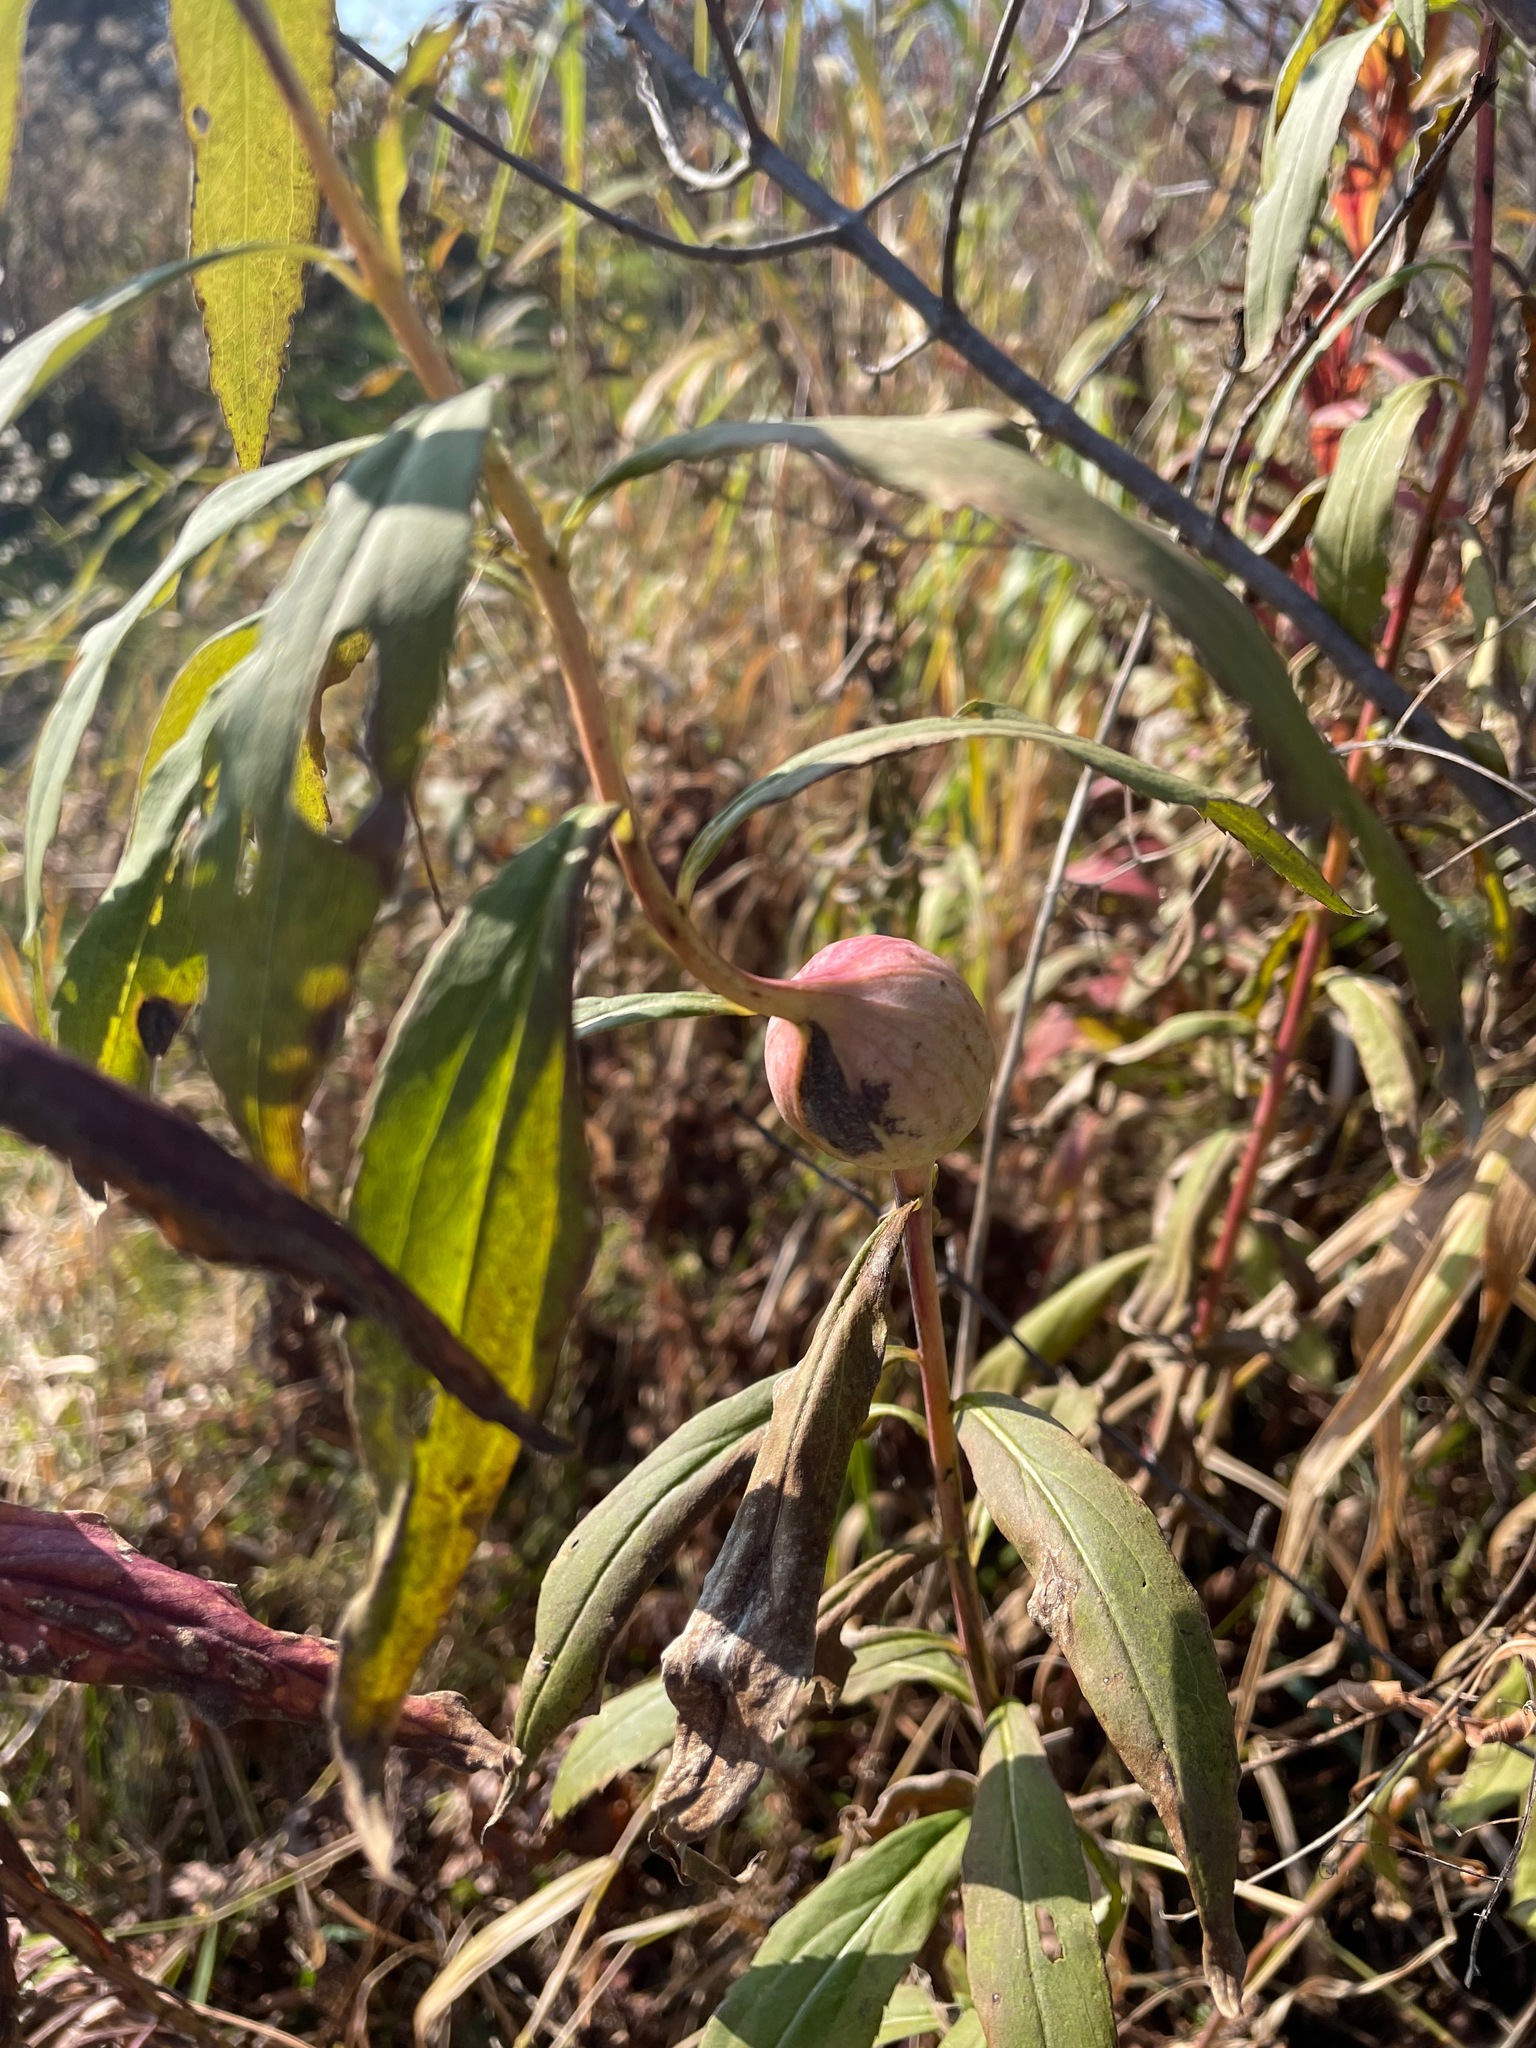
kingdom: Animalia
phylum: Arthropoda
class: Insecta
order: Diptera
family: Tephritidae
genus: Eurosta
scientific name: Eurosta solidaginis
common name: Goldenrod gall fly
